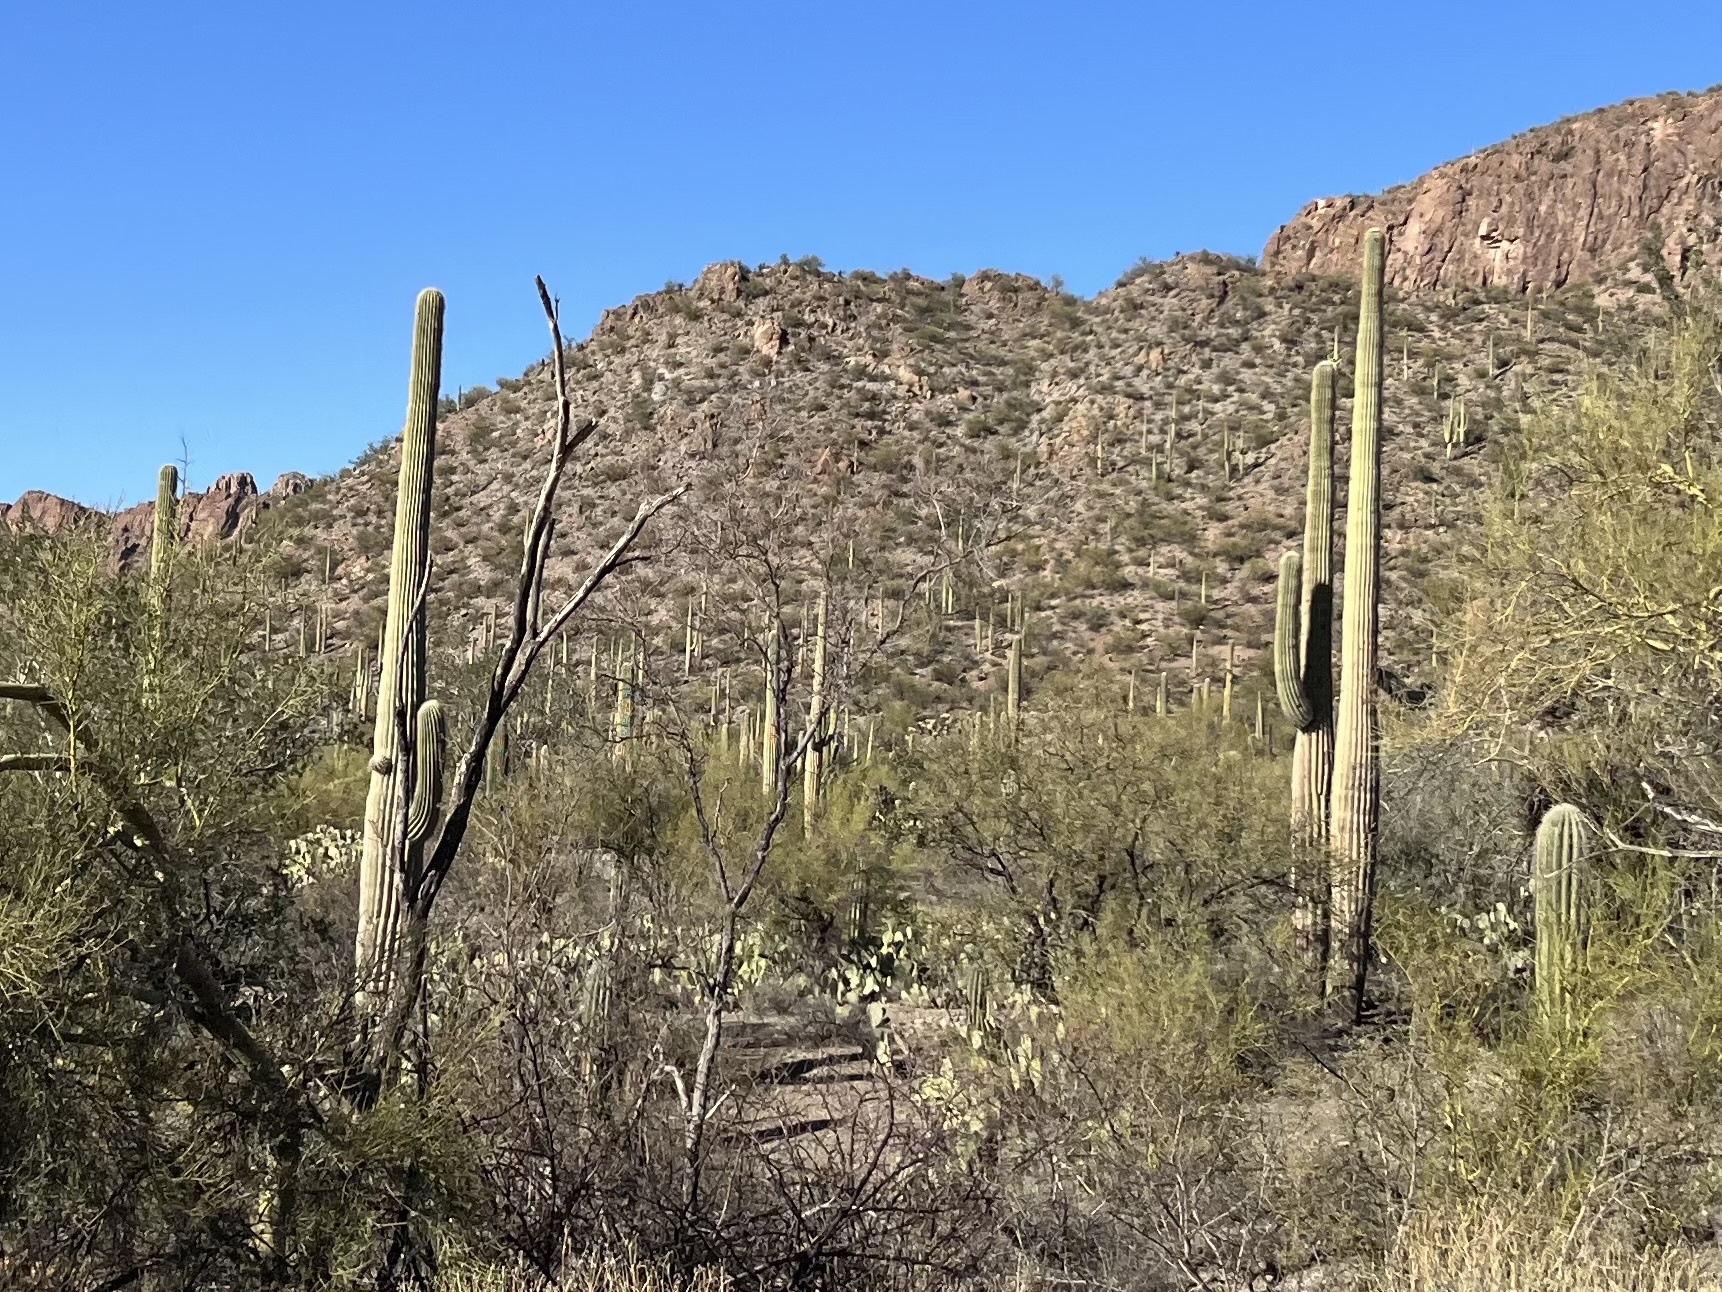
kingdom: Plantae
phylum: Tracheophyta
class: Magnoliopsida
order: Caryophyllales
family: Cactaceae
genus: Carnegiea
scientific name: Carnegiea gigantea
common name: Saguaro
